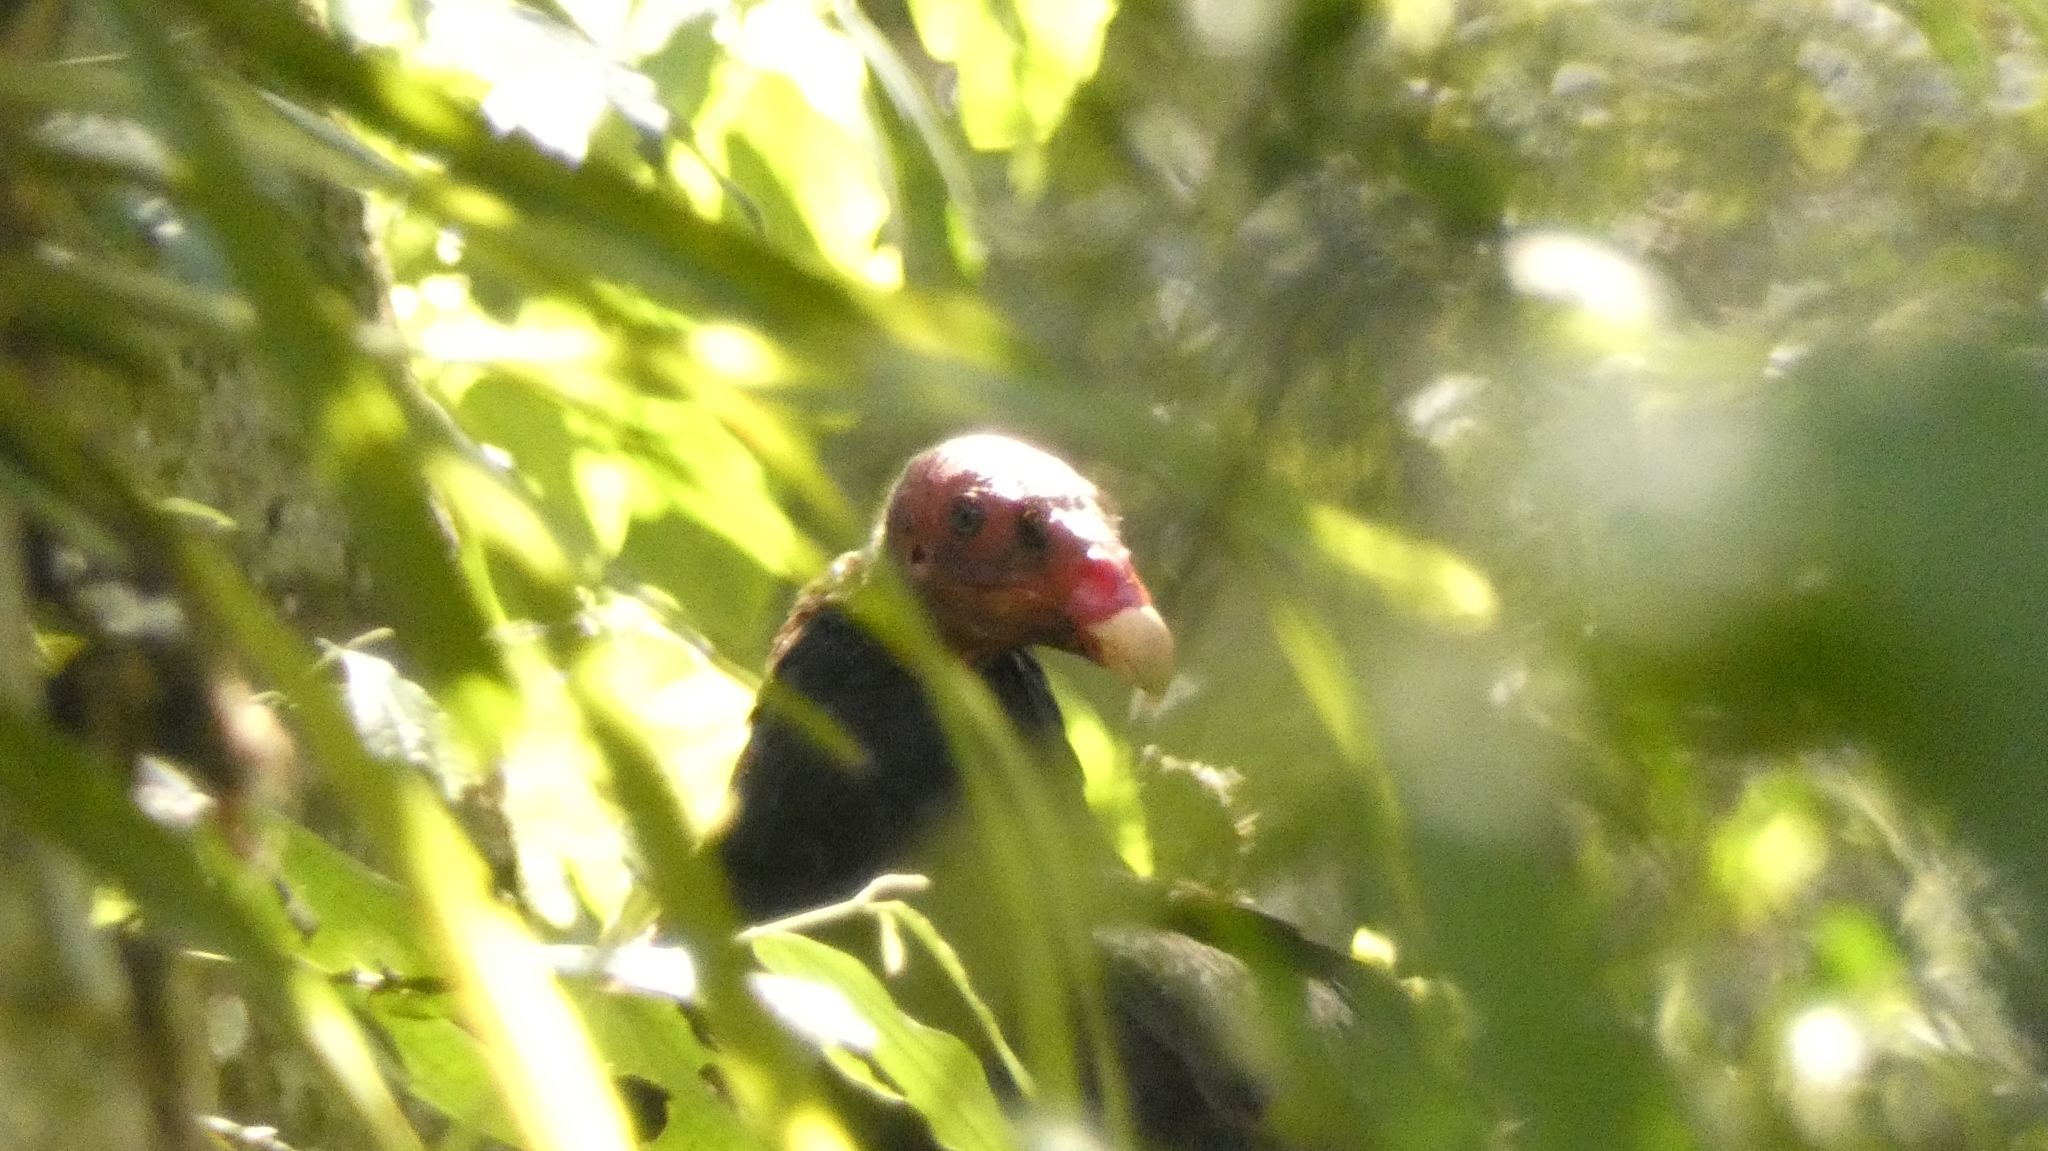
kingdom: Animalia
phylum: Chordata
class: Aves
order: Accipitriformes
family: Cathartidae
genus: Cathartes
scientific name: Cathartes aura
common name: Turkey vulture
